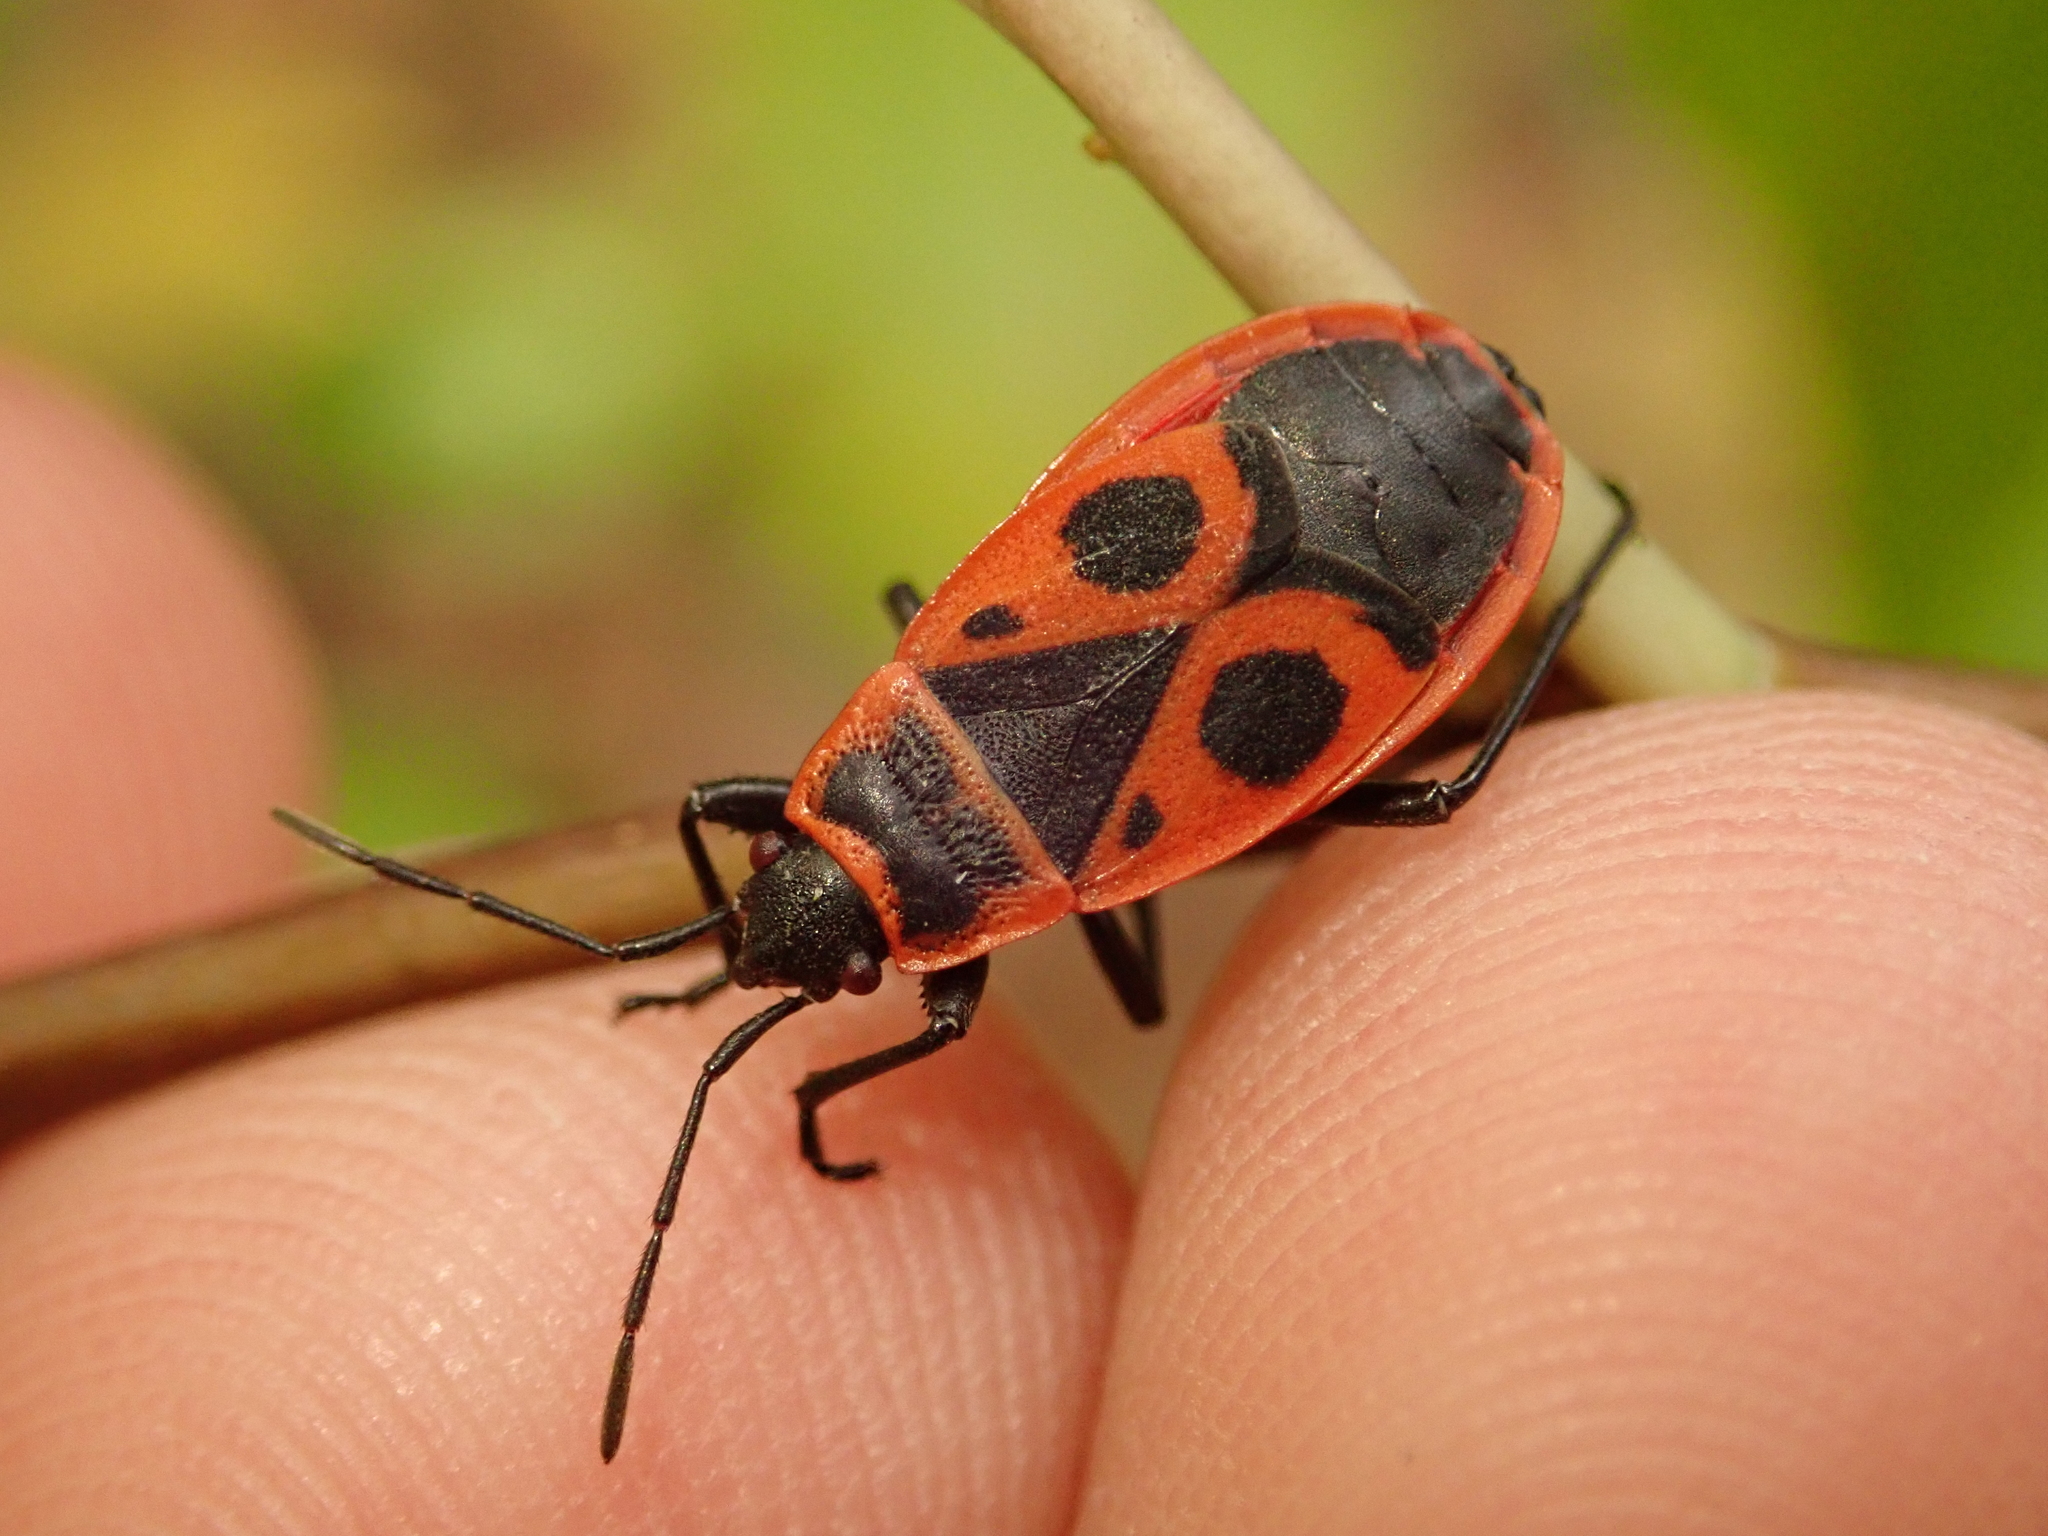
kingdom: Animalia
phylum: Arthropoda
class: Insecta
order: Hemiptera
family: Pyrrhocoridae
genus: Pyrrhocoris
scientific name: Pyrrhocoris apterus
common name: Firebug
